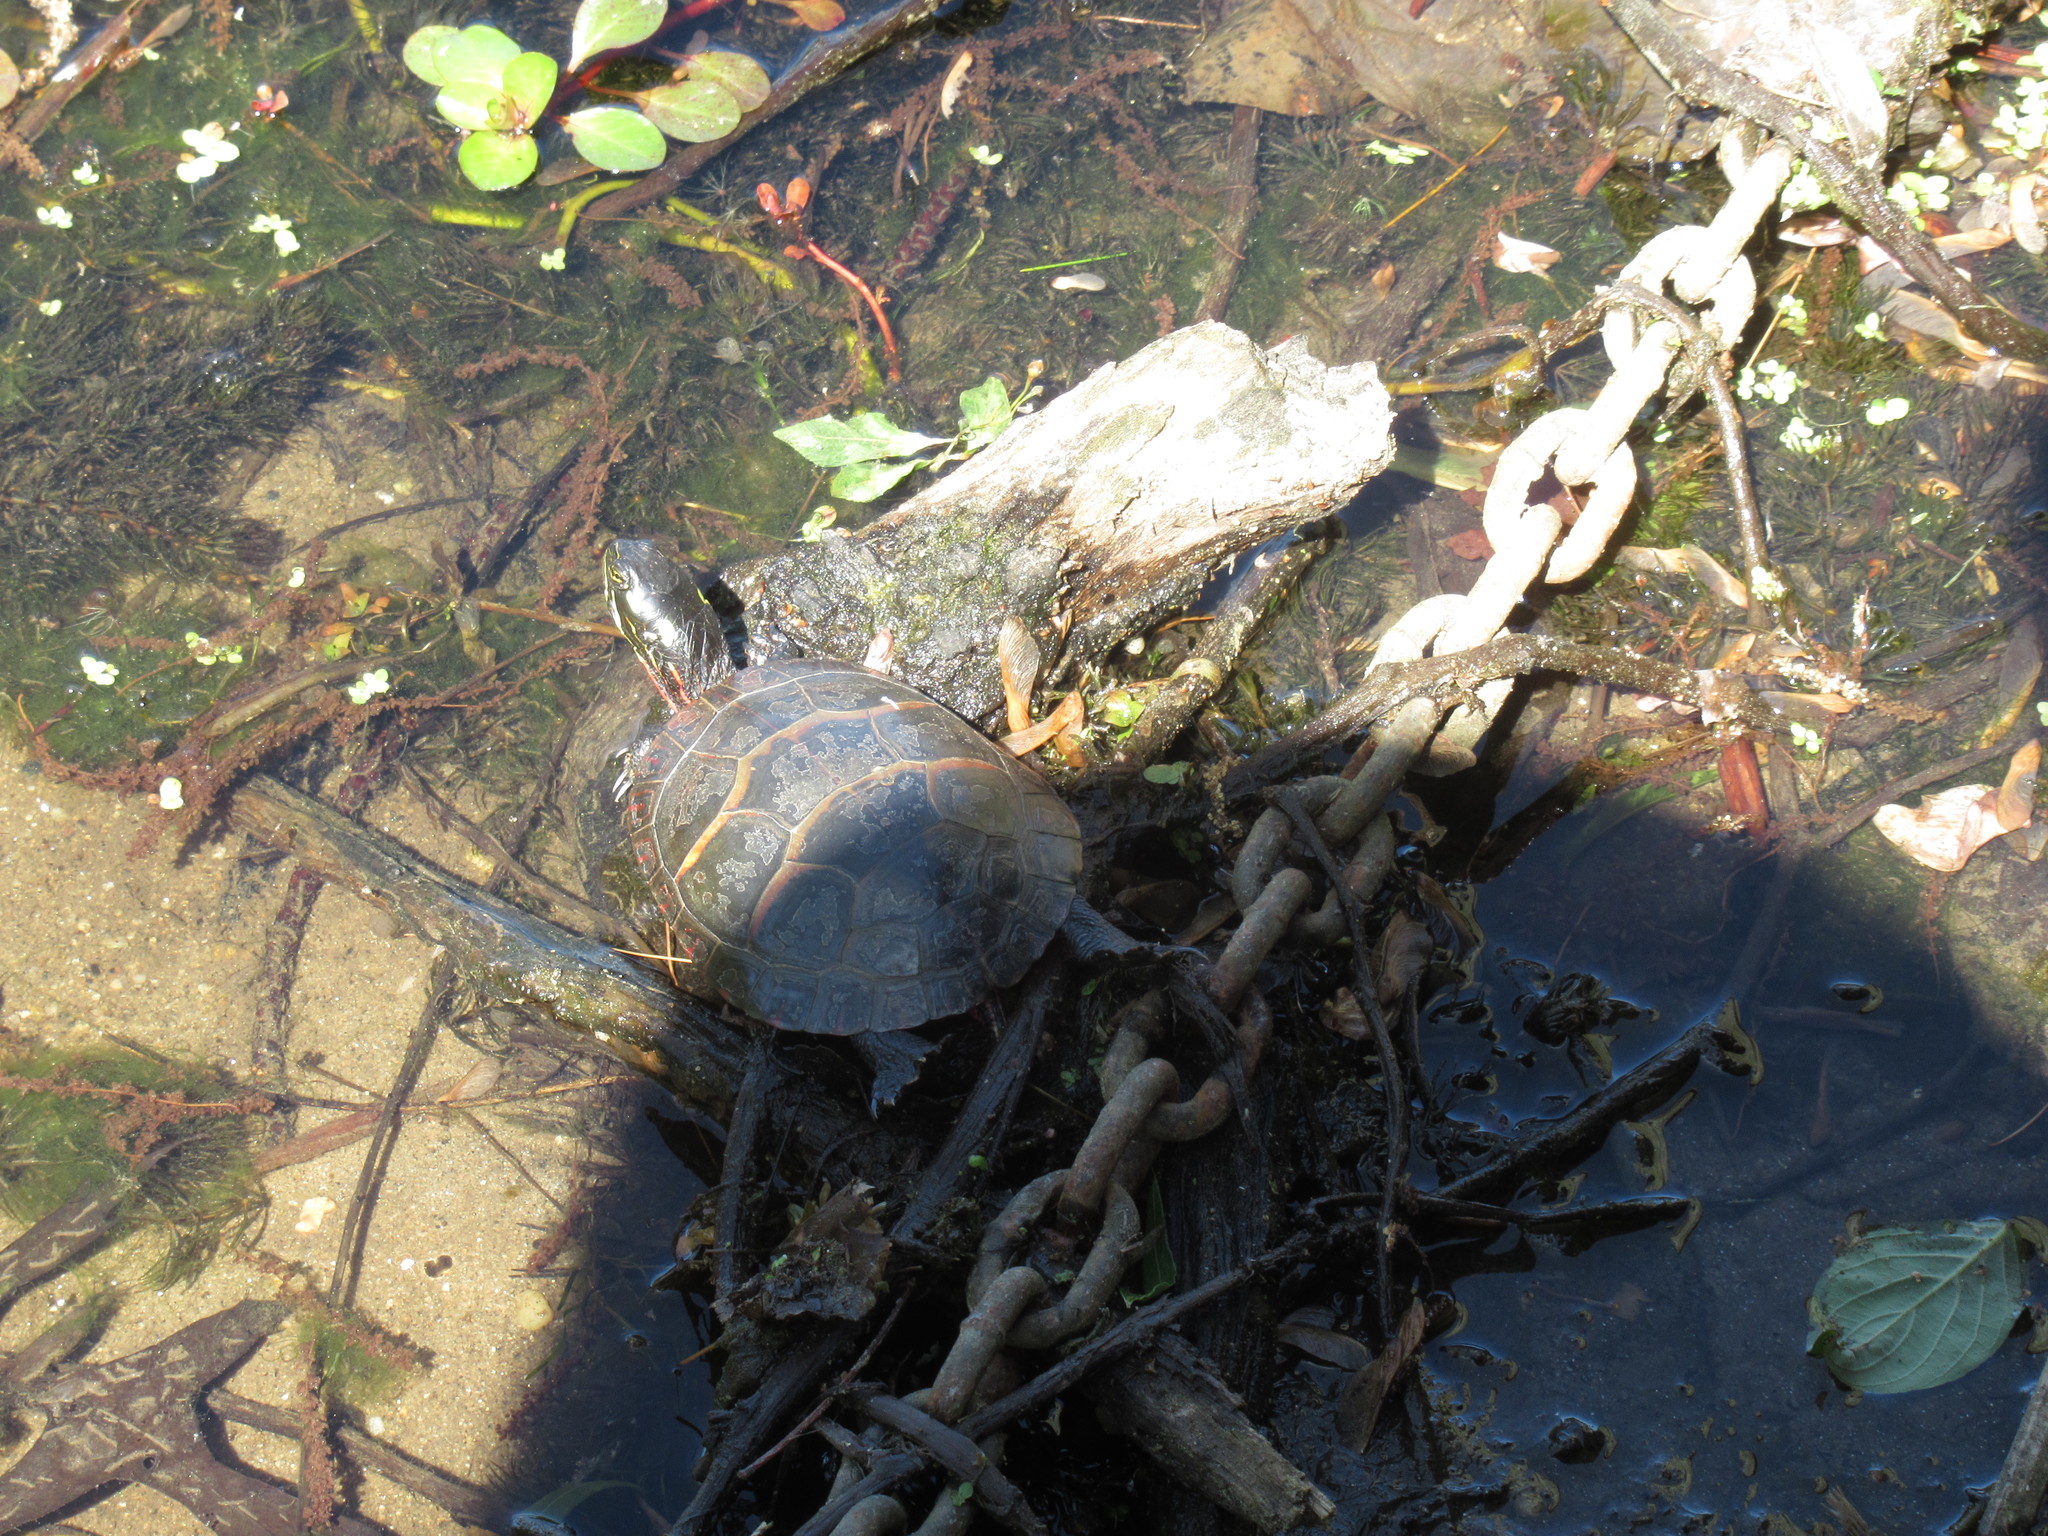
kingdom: Animalia
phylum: Chordata
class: Testudines
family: Emydidae
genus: Chrysemys
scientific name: Chrysemys picta
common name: Painted turtle
